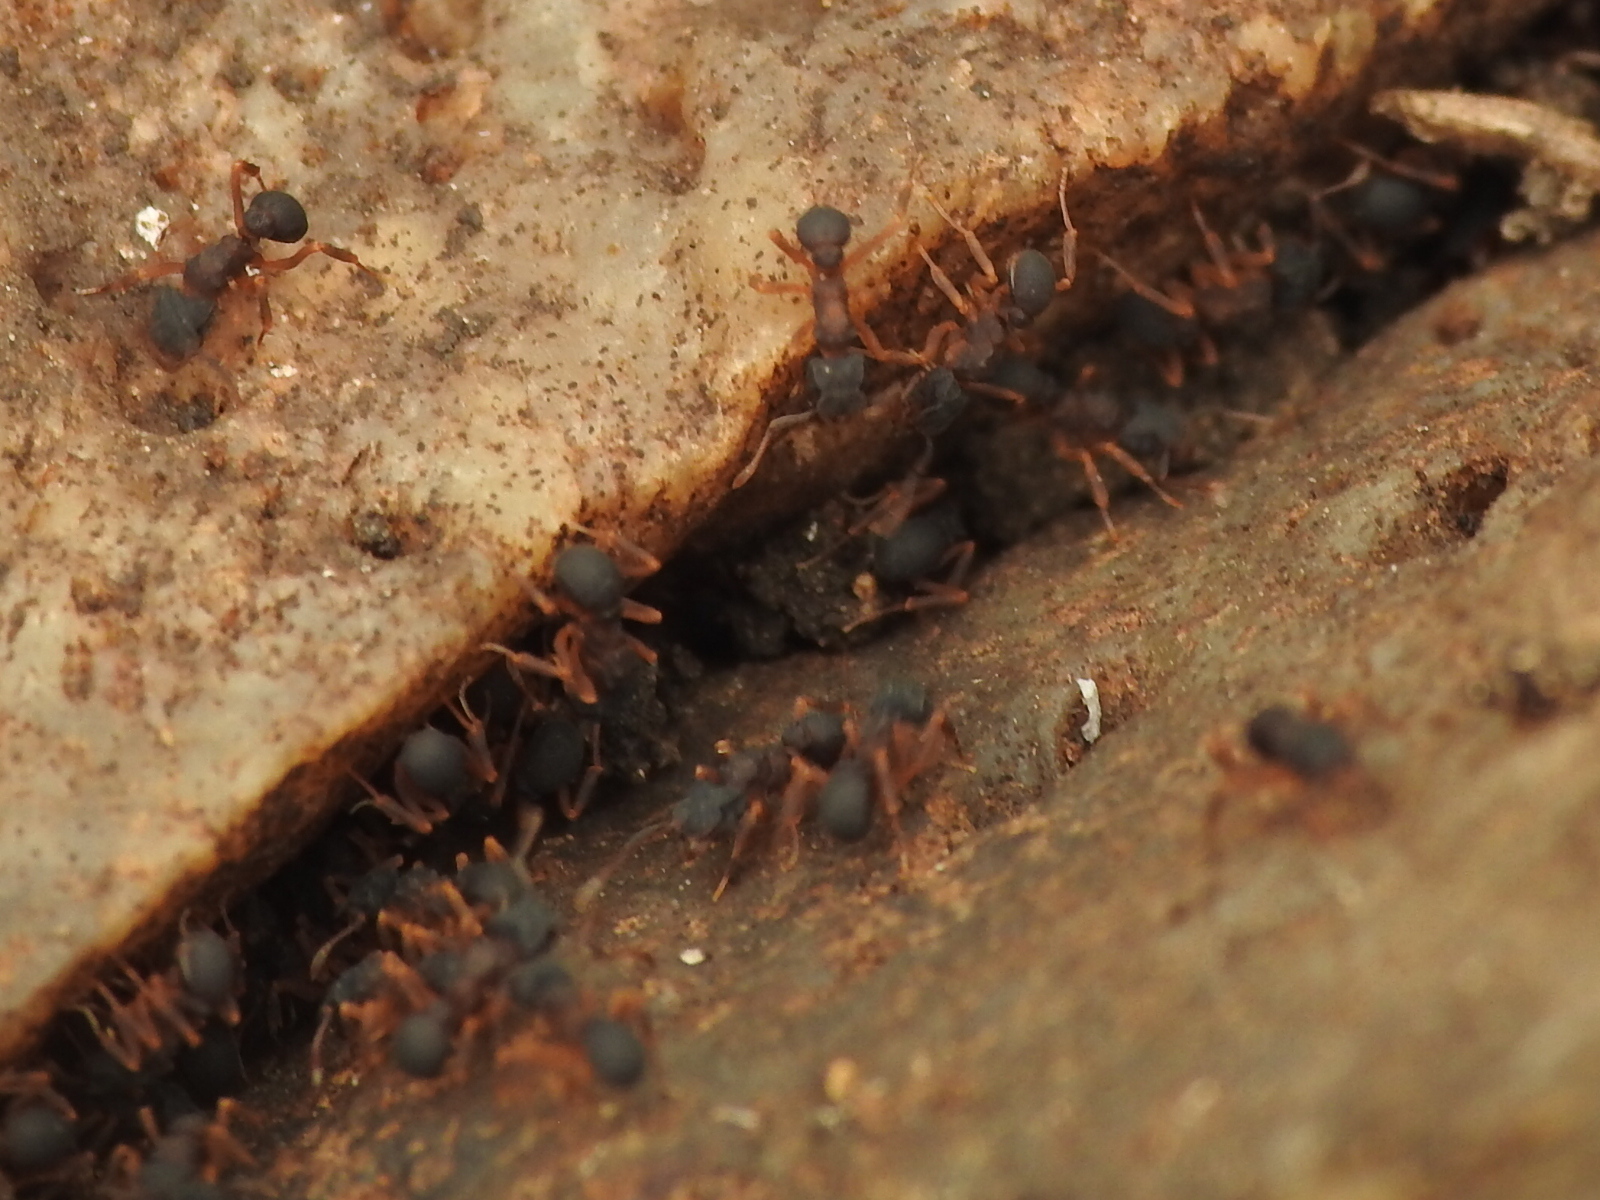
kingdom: Animalia
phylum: Arthropoda
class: Insecta
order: Hymenoptera
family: Formicidae
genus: Cyphomyrmex
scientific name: Cyphomyrmex rimosus
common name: Rimose fungus ant
